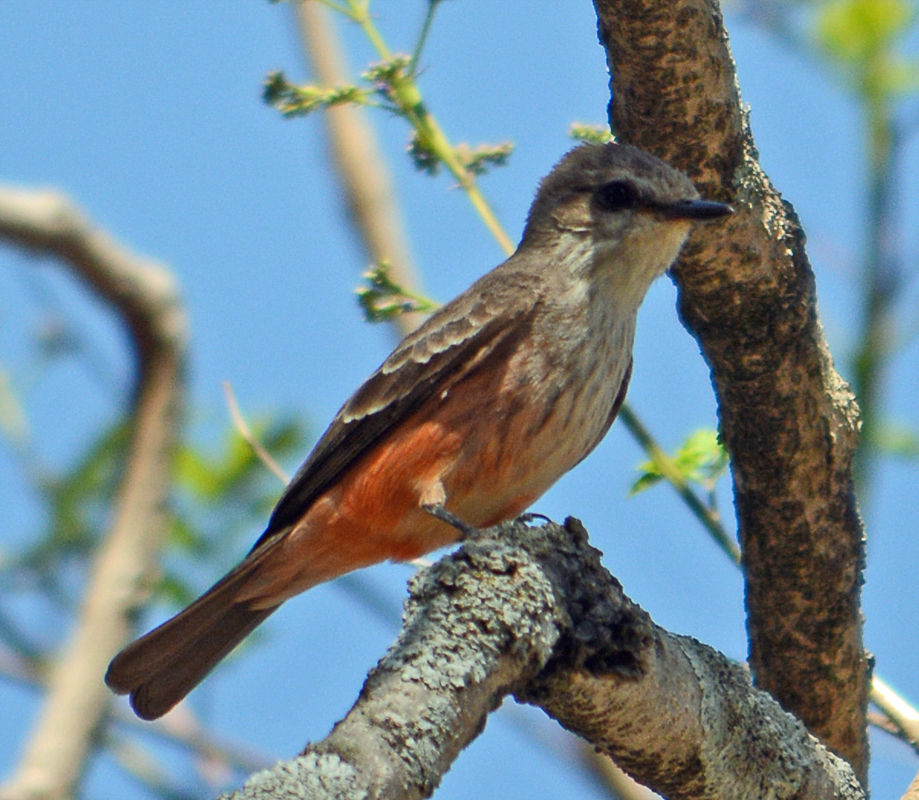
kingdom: Animalia
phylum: Chordata
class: Aves
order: Passeriformes
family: Tyrannidae
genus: Pyrocephalus
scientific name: Pyrocephalus rubinus
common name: Vermilion flycatcher
